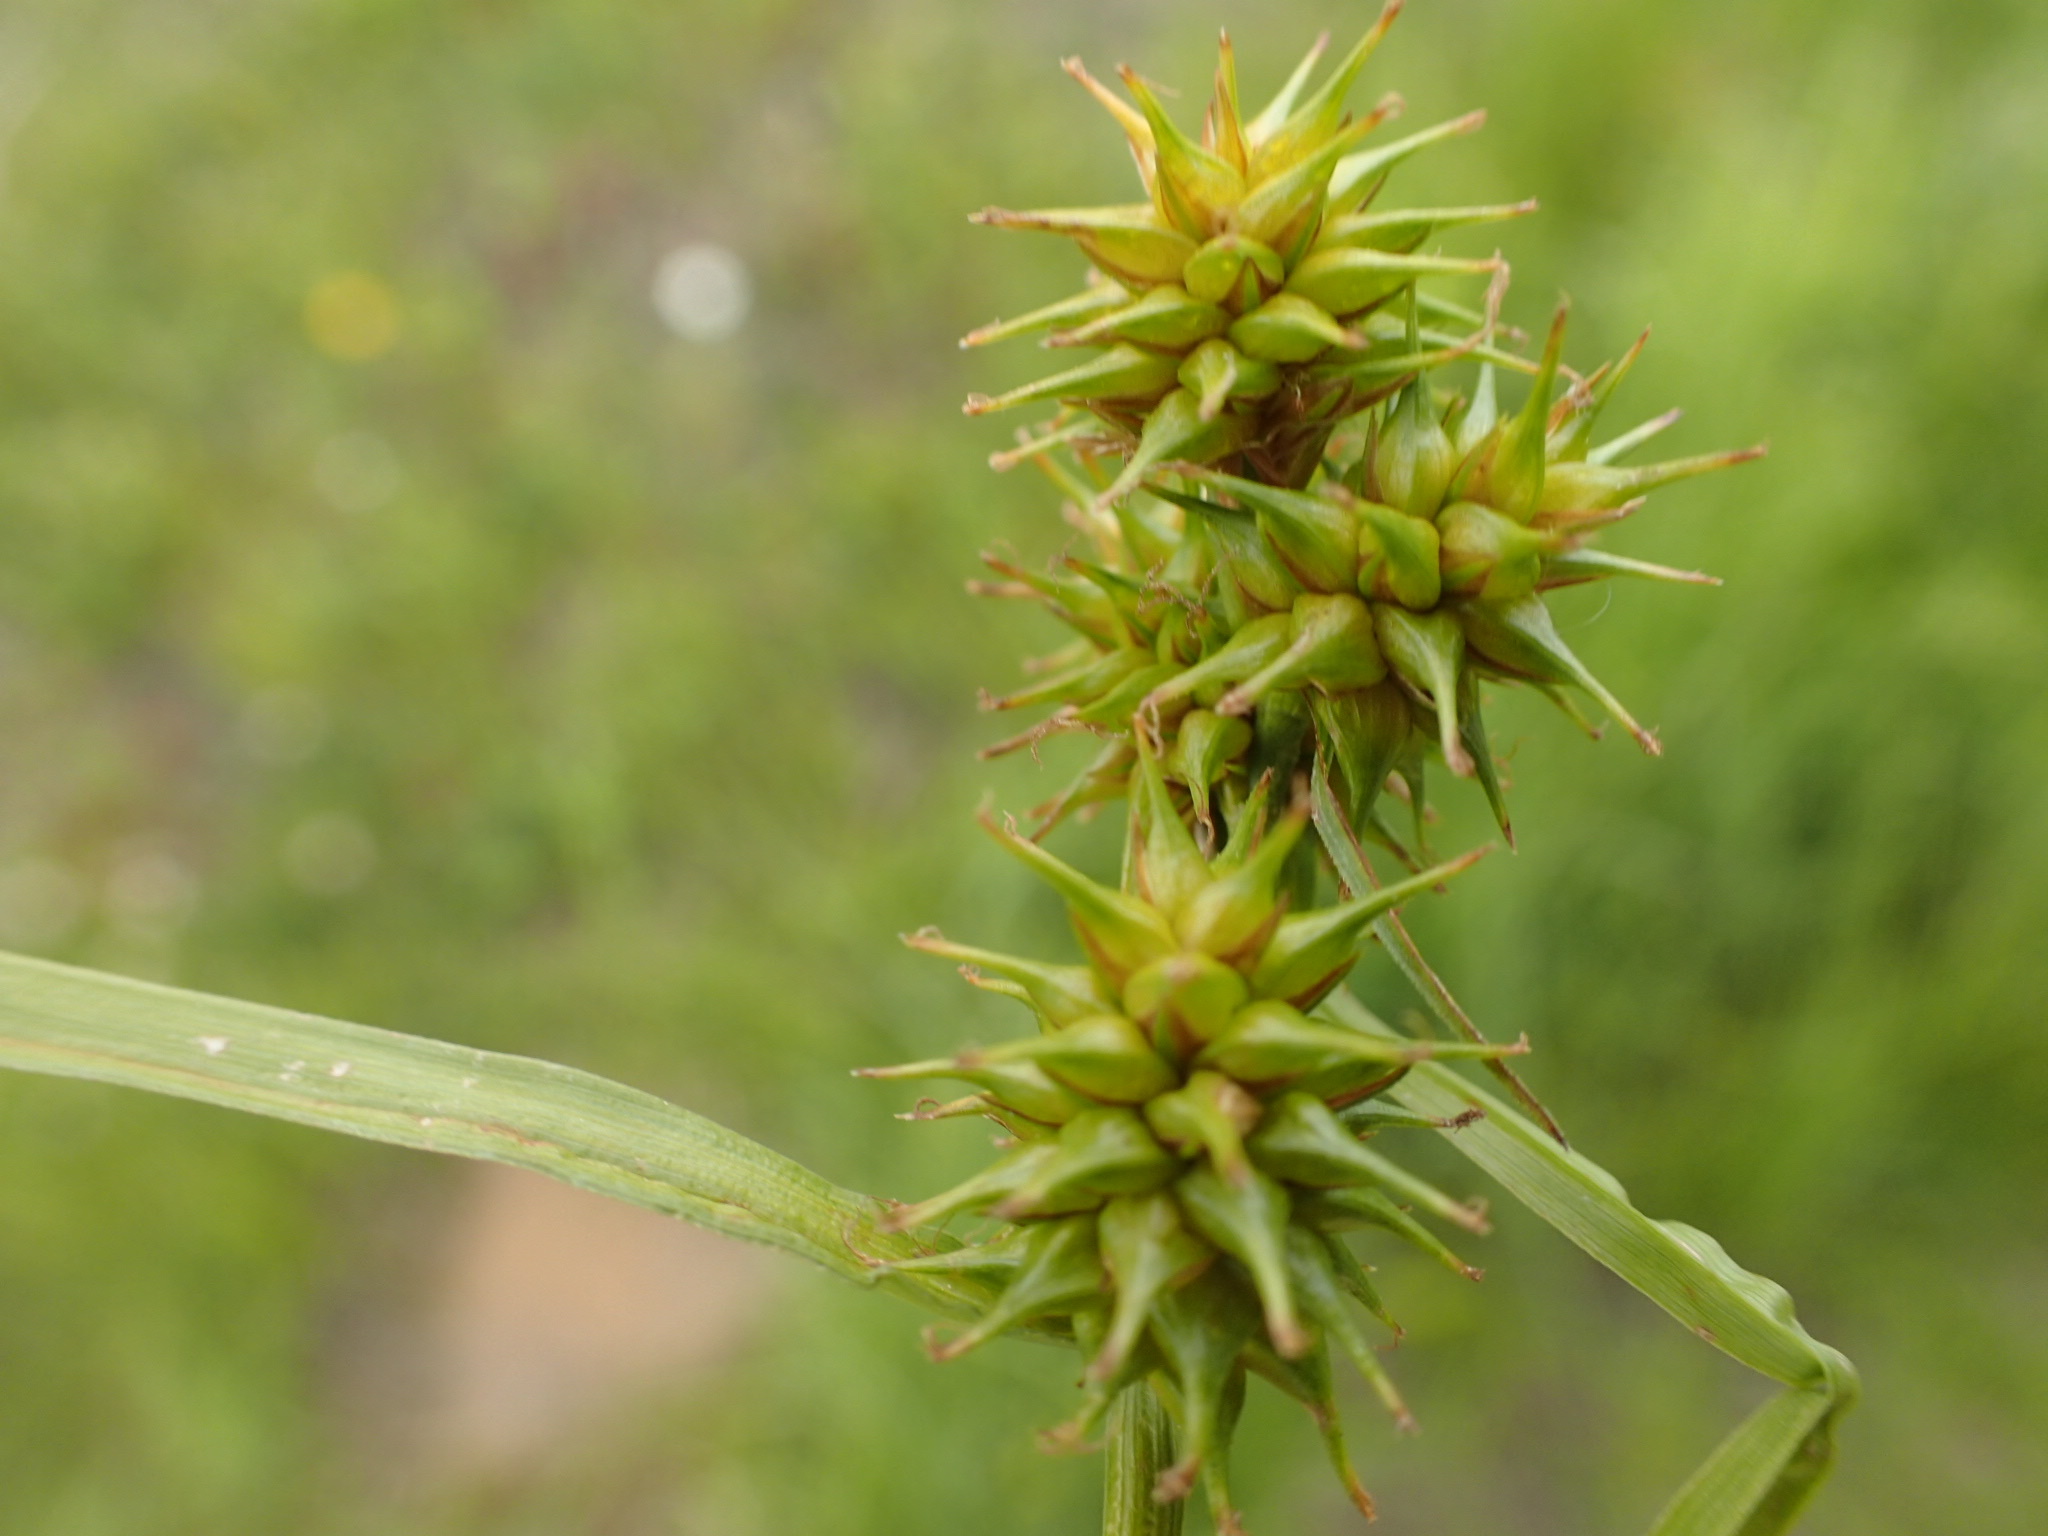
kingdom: Plantae
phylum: Tracheophyta
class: Liliopsida
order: Poales
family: Cyperaceae
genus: Carex
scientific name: Carex flava
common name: Large yellow-sedge
